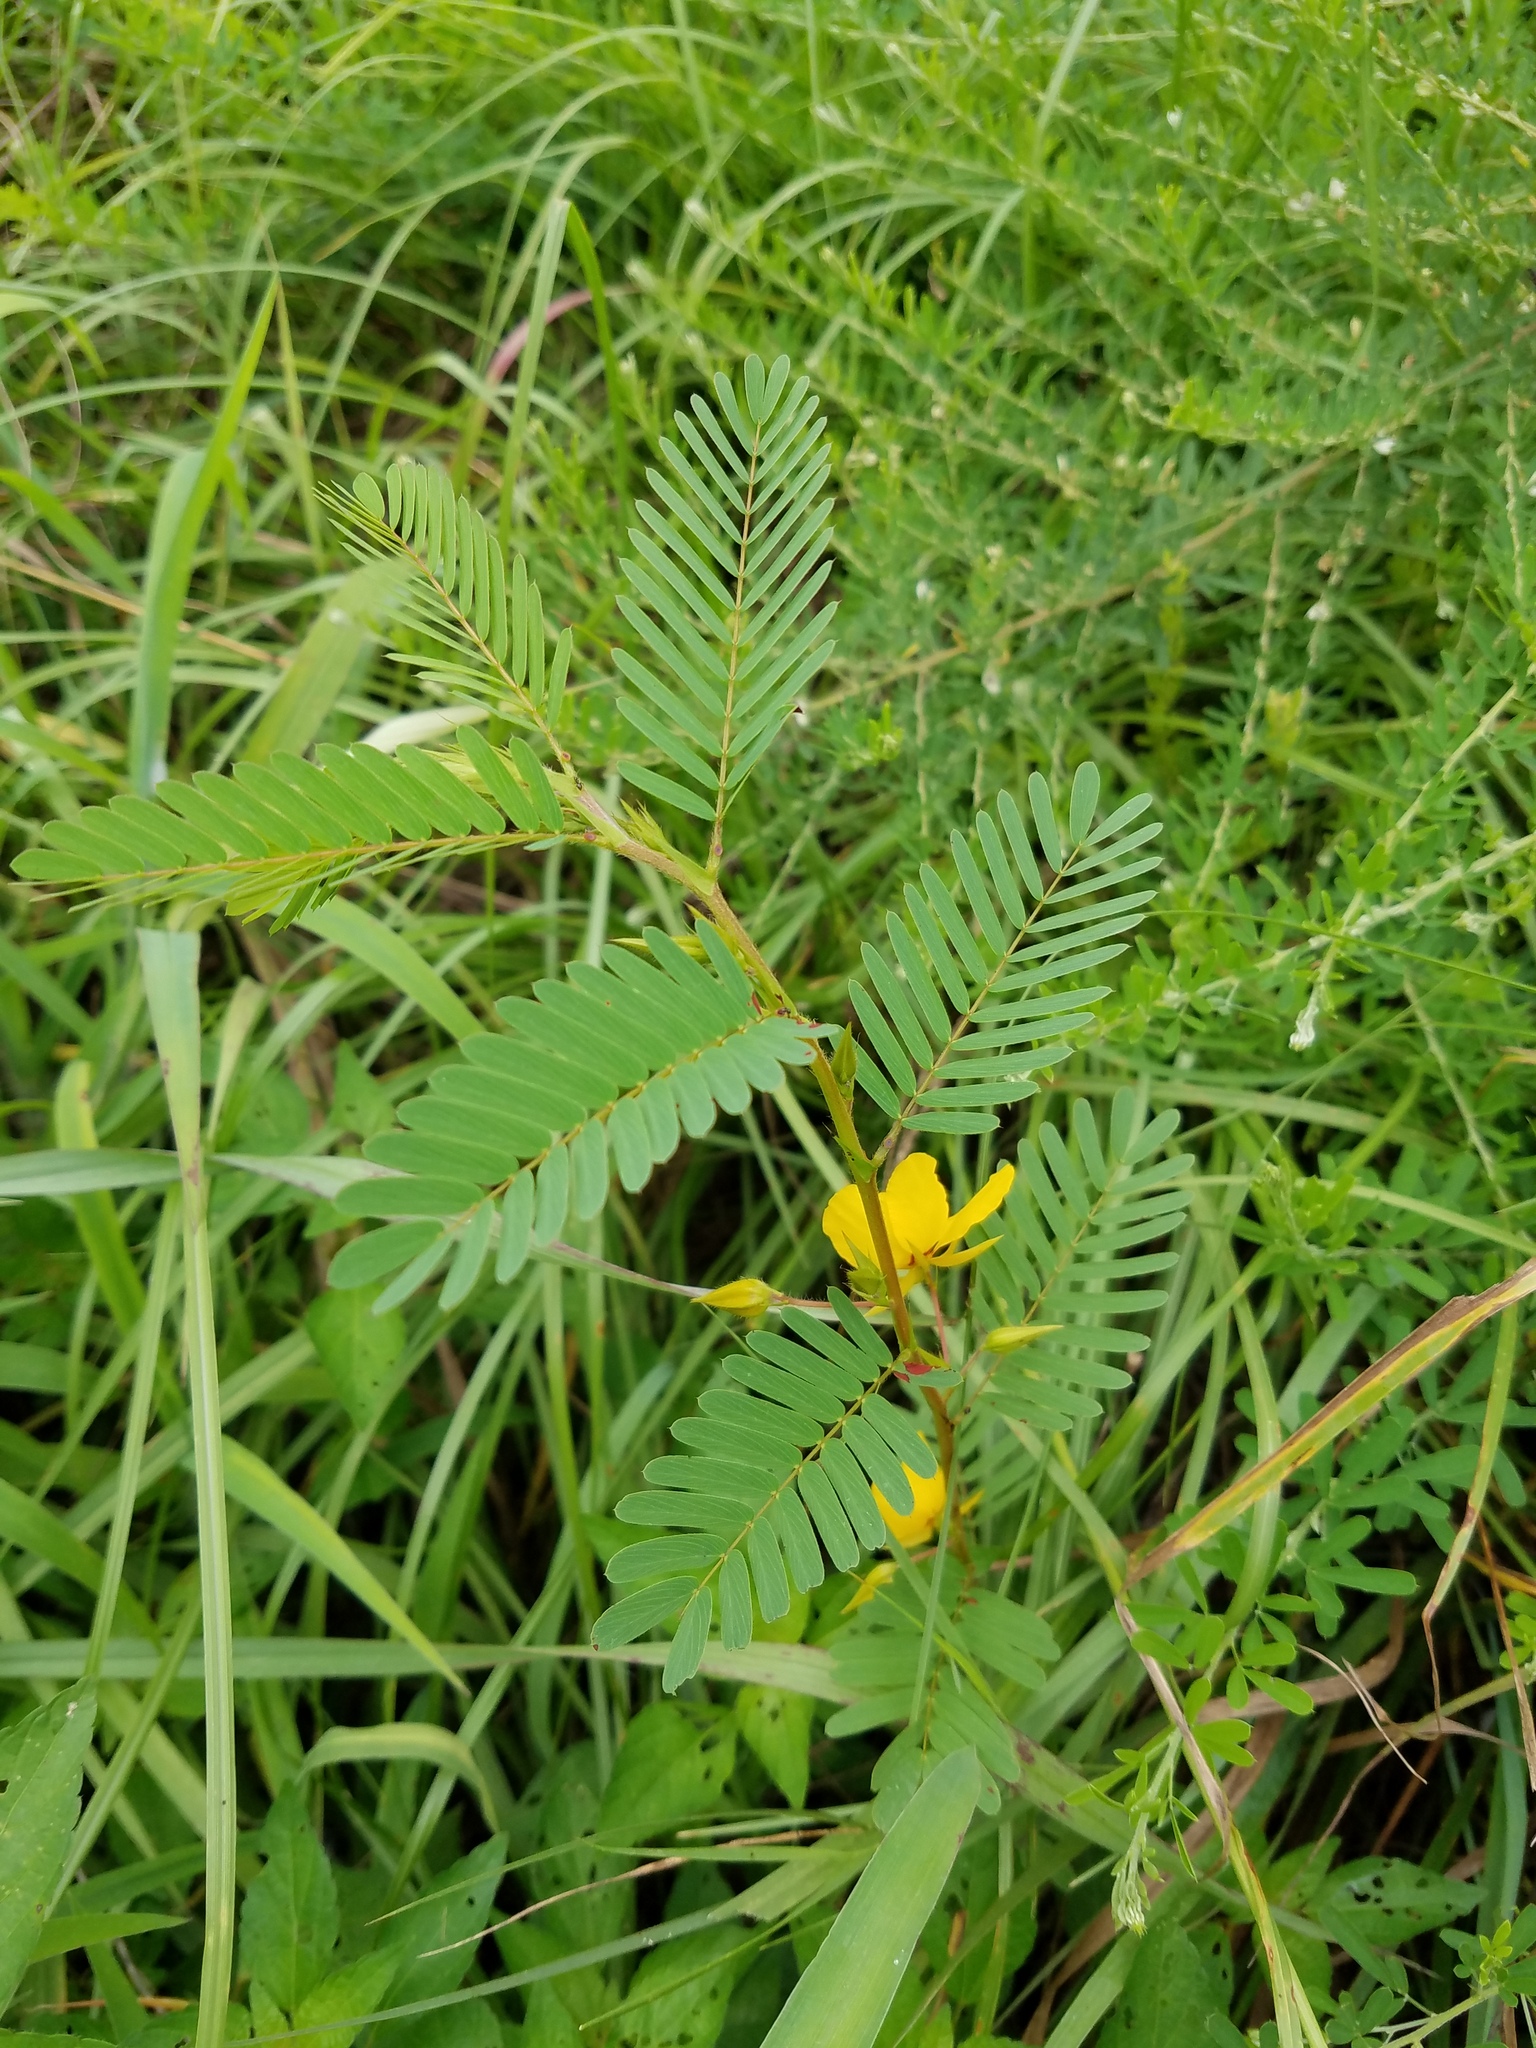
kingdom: Plantae
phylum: Tracheophyta
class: Magnoliopsida
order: Fabales
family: Fabaceae
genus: Chamaecrista
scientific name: Chamaecrista fasciculata
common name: Golden cassia
